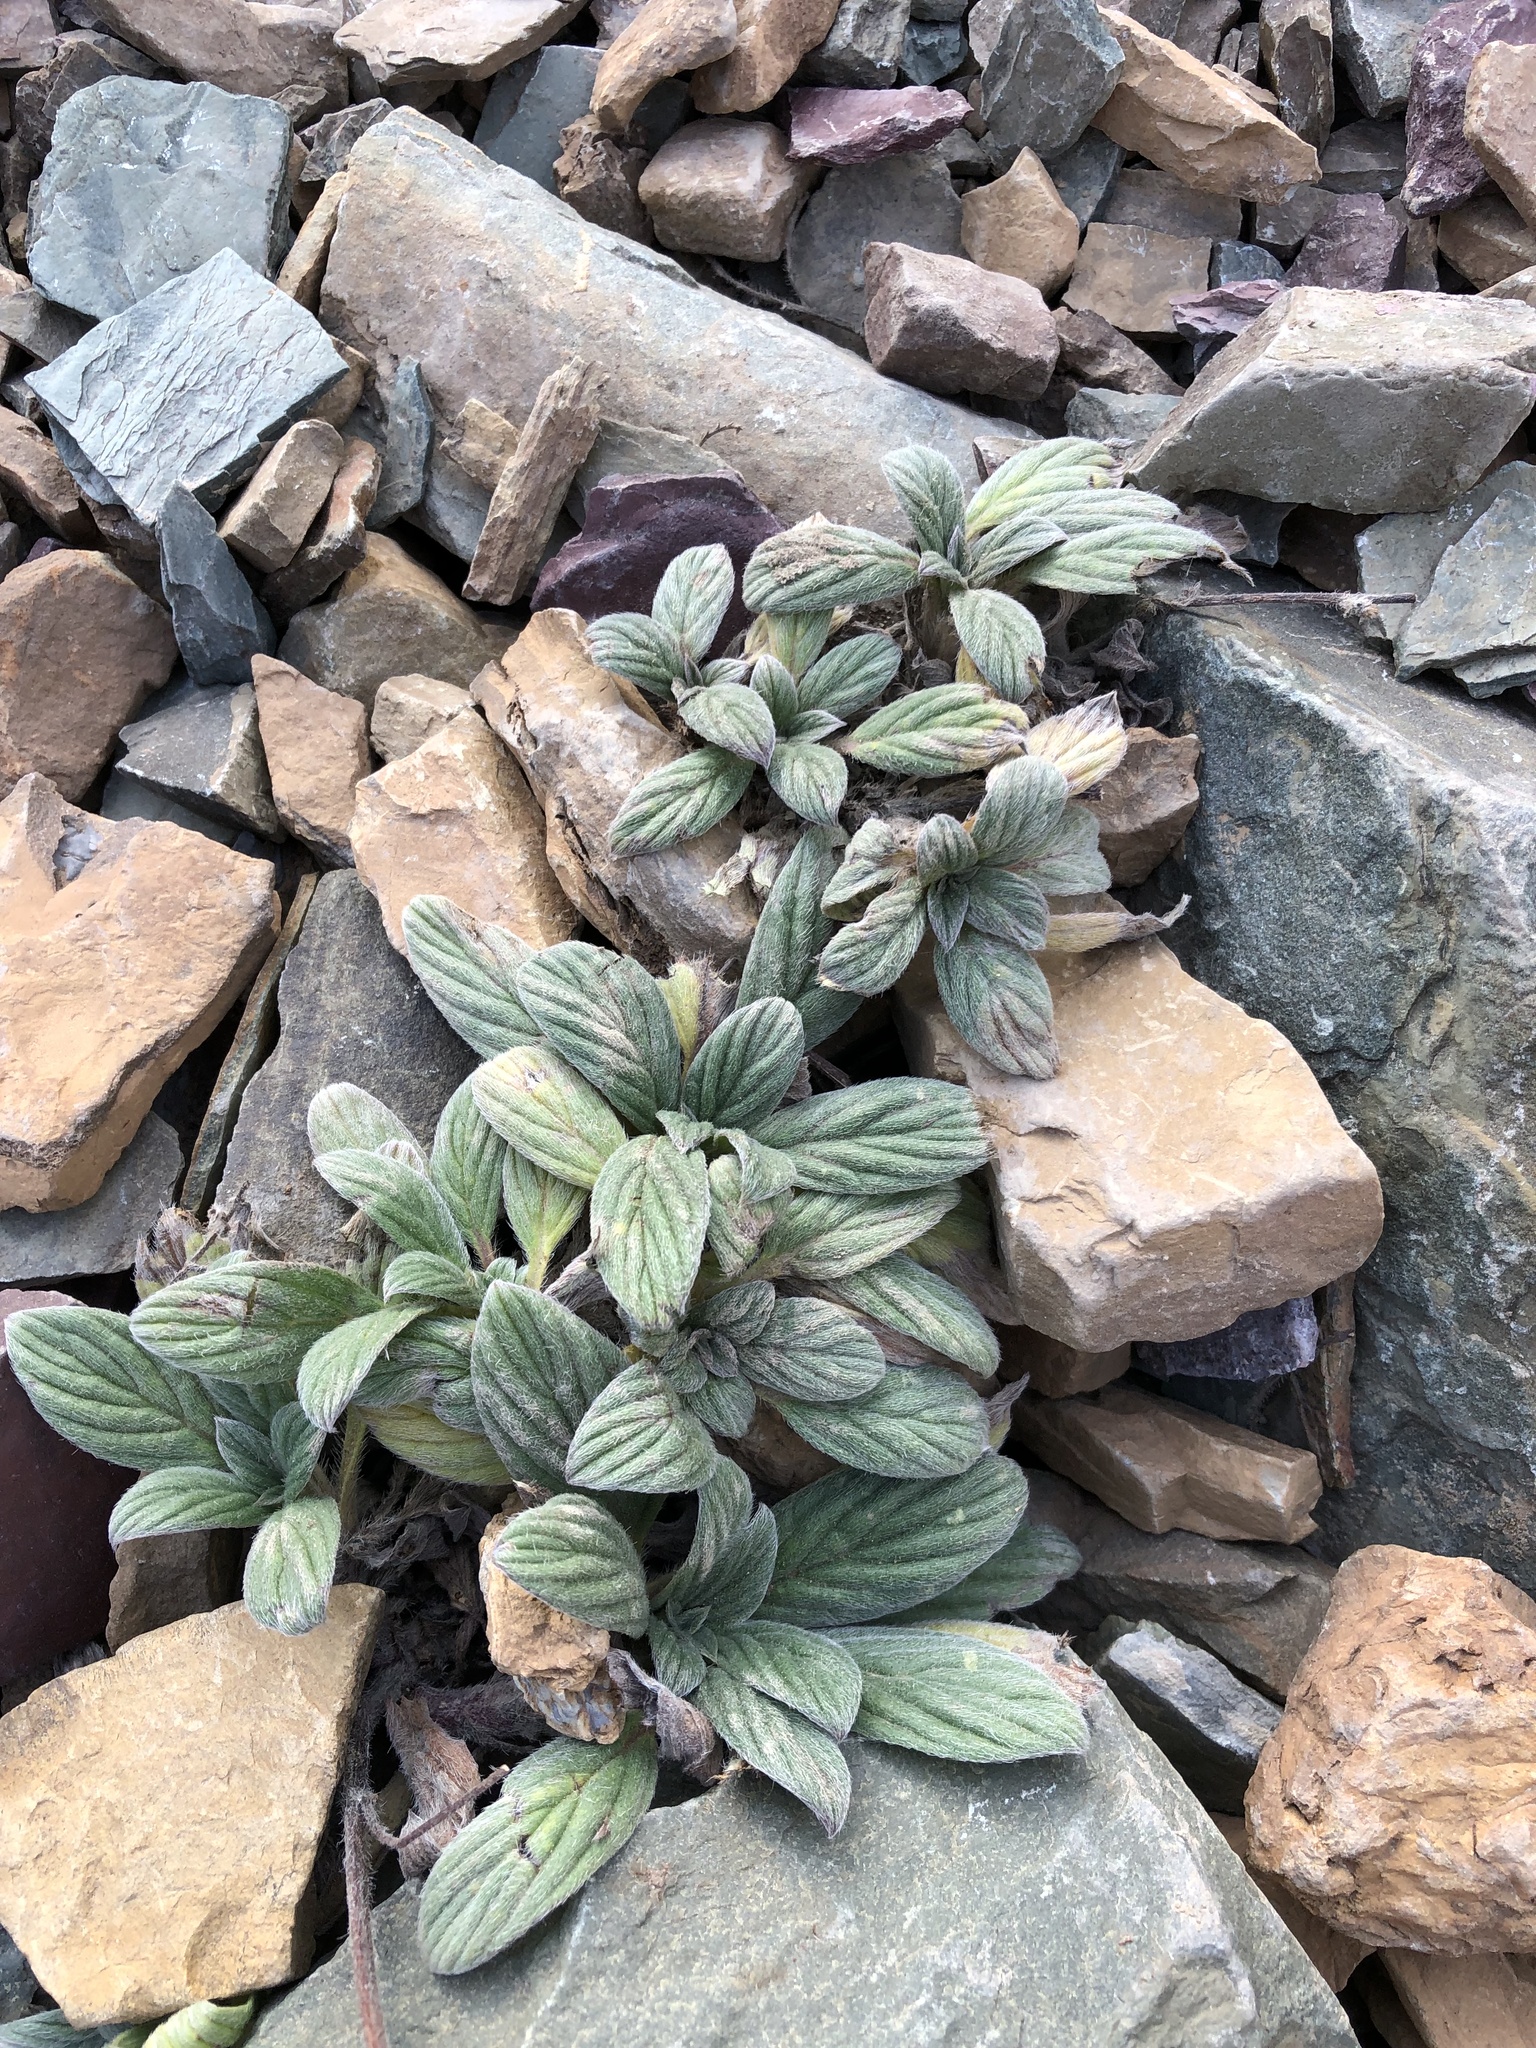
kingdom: Plantae
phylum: Tracheophyta
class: Magnoliopsida
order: Boraginales
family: Hydrophyllaceae
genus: Phacelia
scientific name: Phacelia hastata
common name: Silver-leaved phacelia
